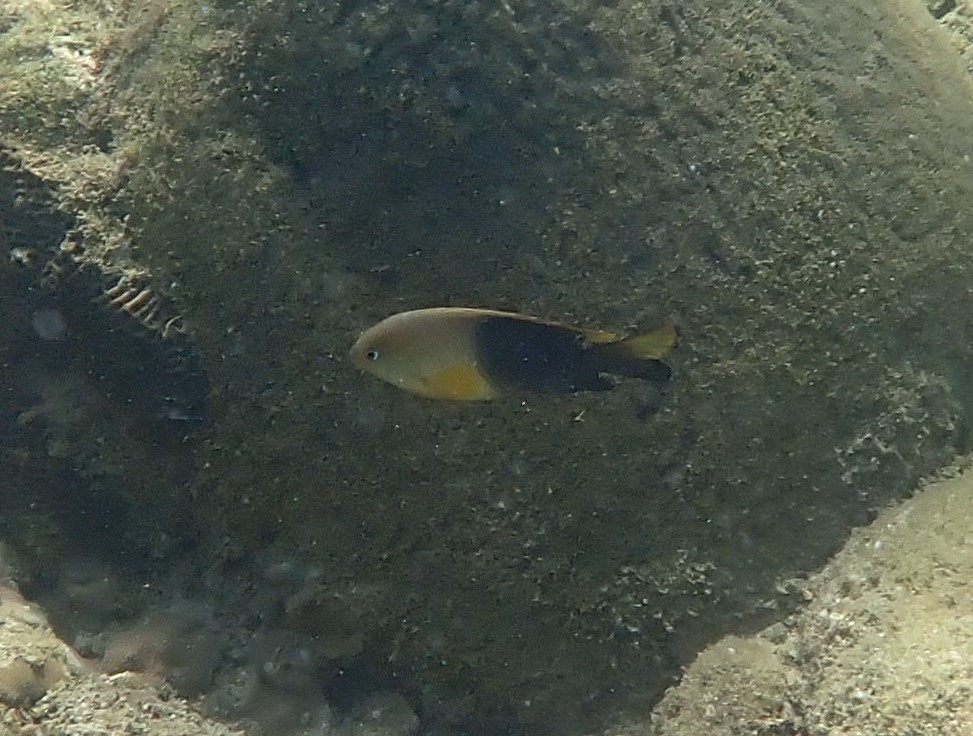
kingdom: Animalia
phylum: Chordata
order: Perciformes
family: Pomacentridae
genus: Chrysiptera
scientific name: Chrysiptera unimaculata
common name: Onespot demoiselle
